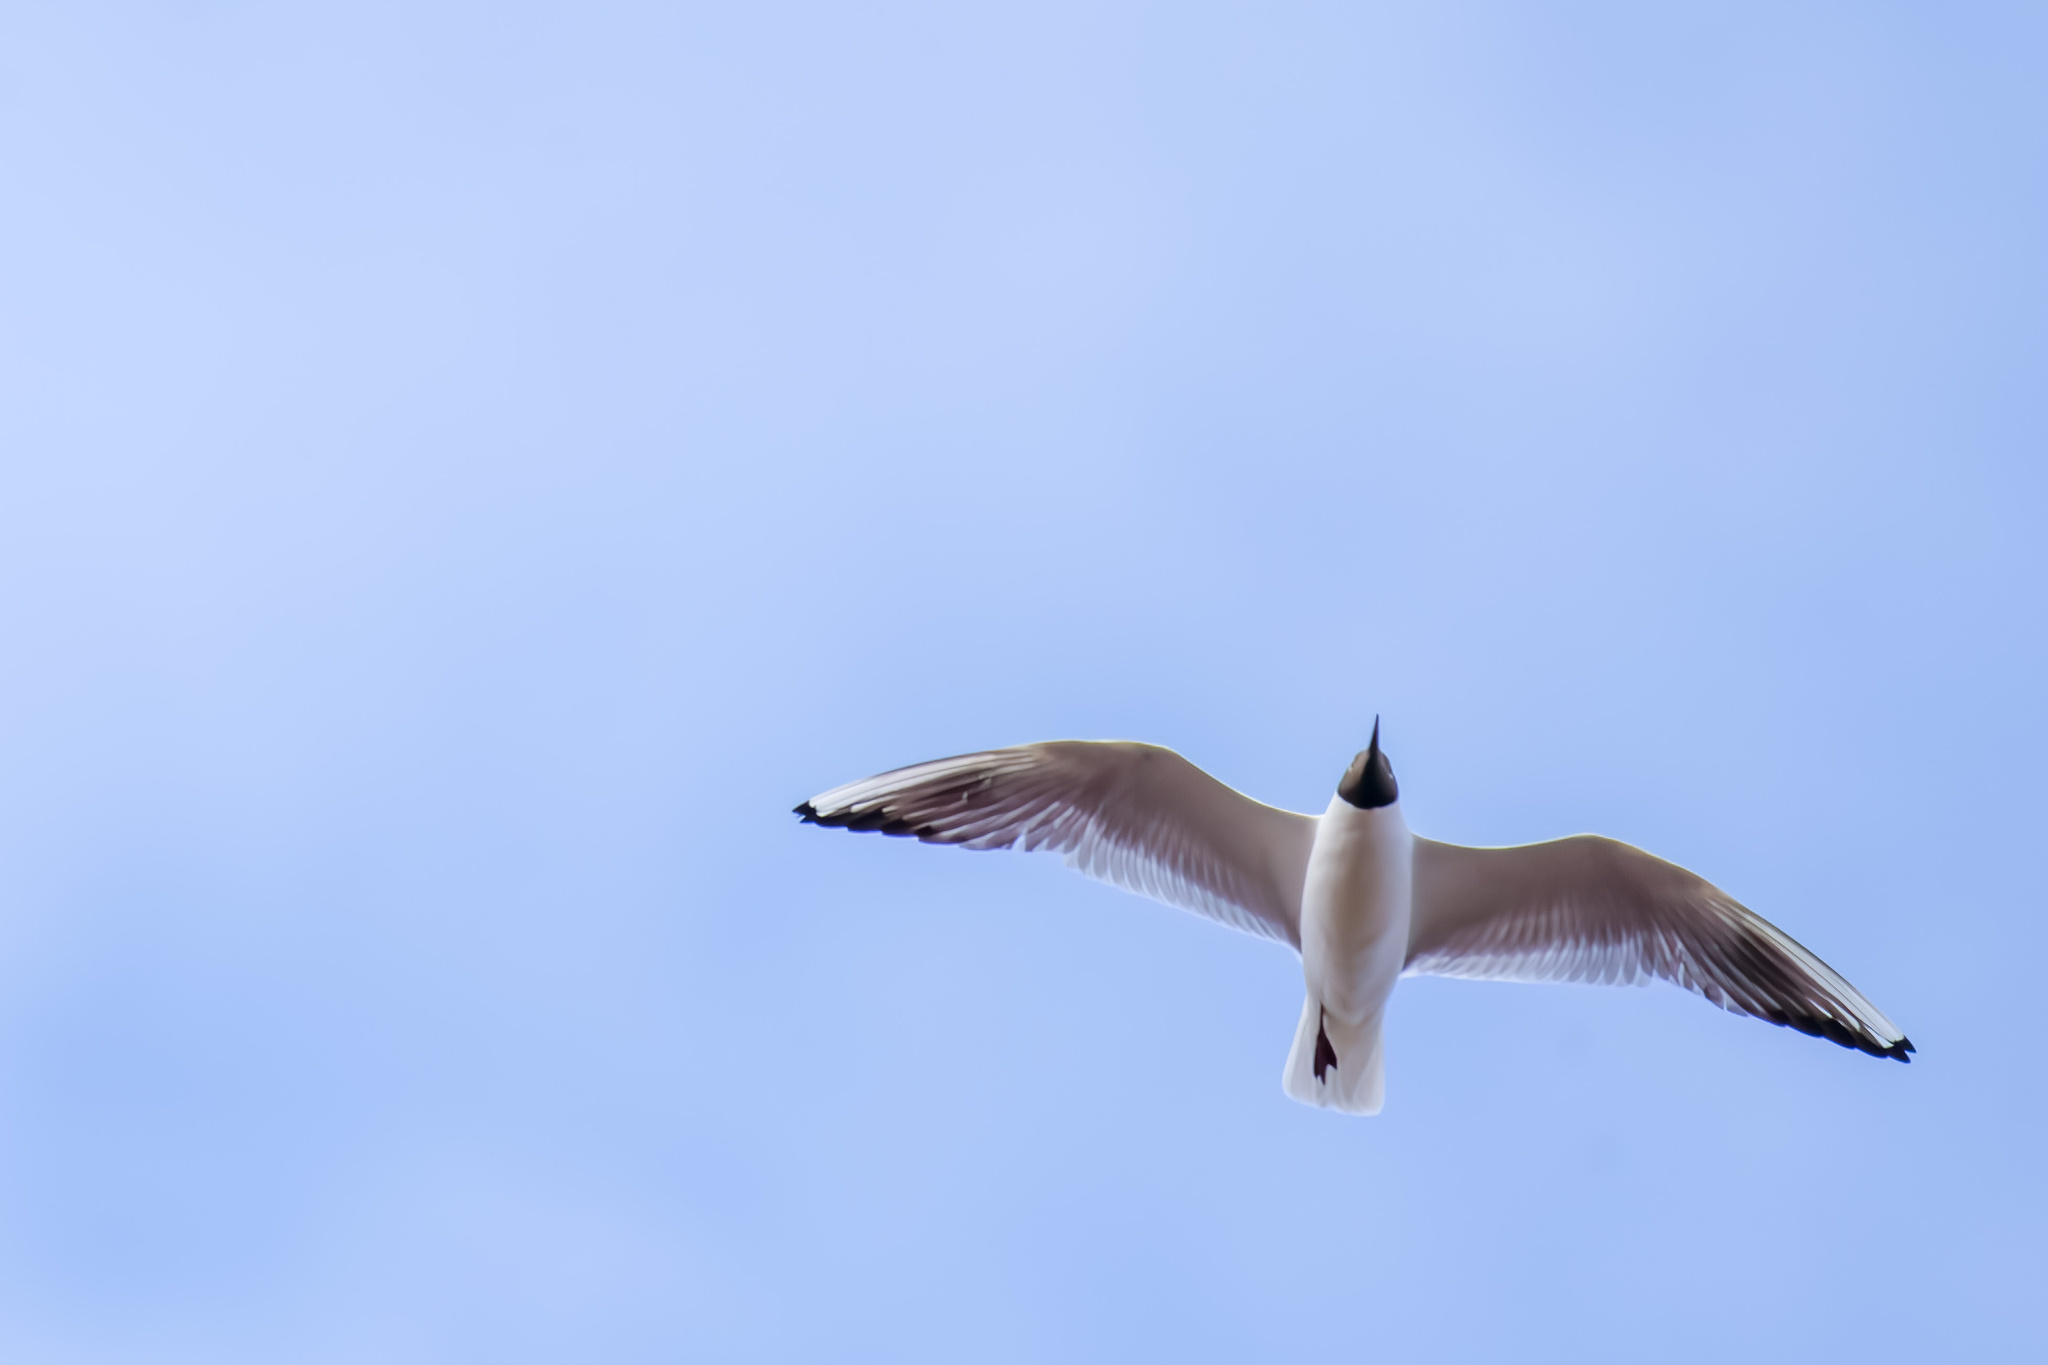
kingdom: Animalia
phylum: Chordata
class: Aves
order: Charadriiformes
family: Laridae
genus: Chroicocephalus
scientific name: Chroicocephalus ridibundus
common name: Black-headed gull
